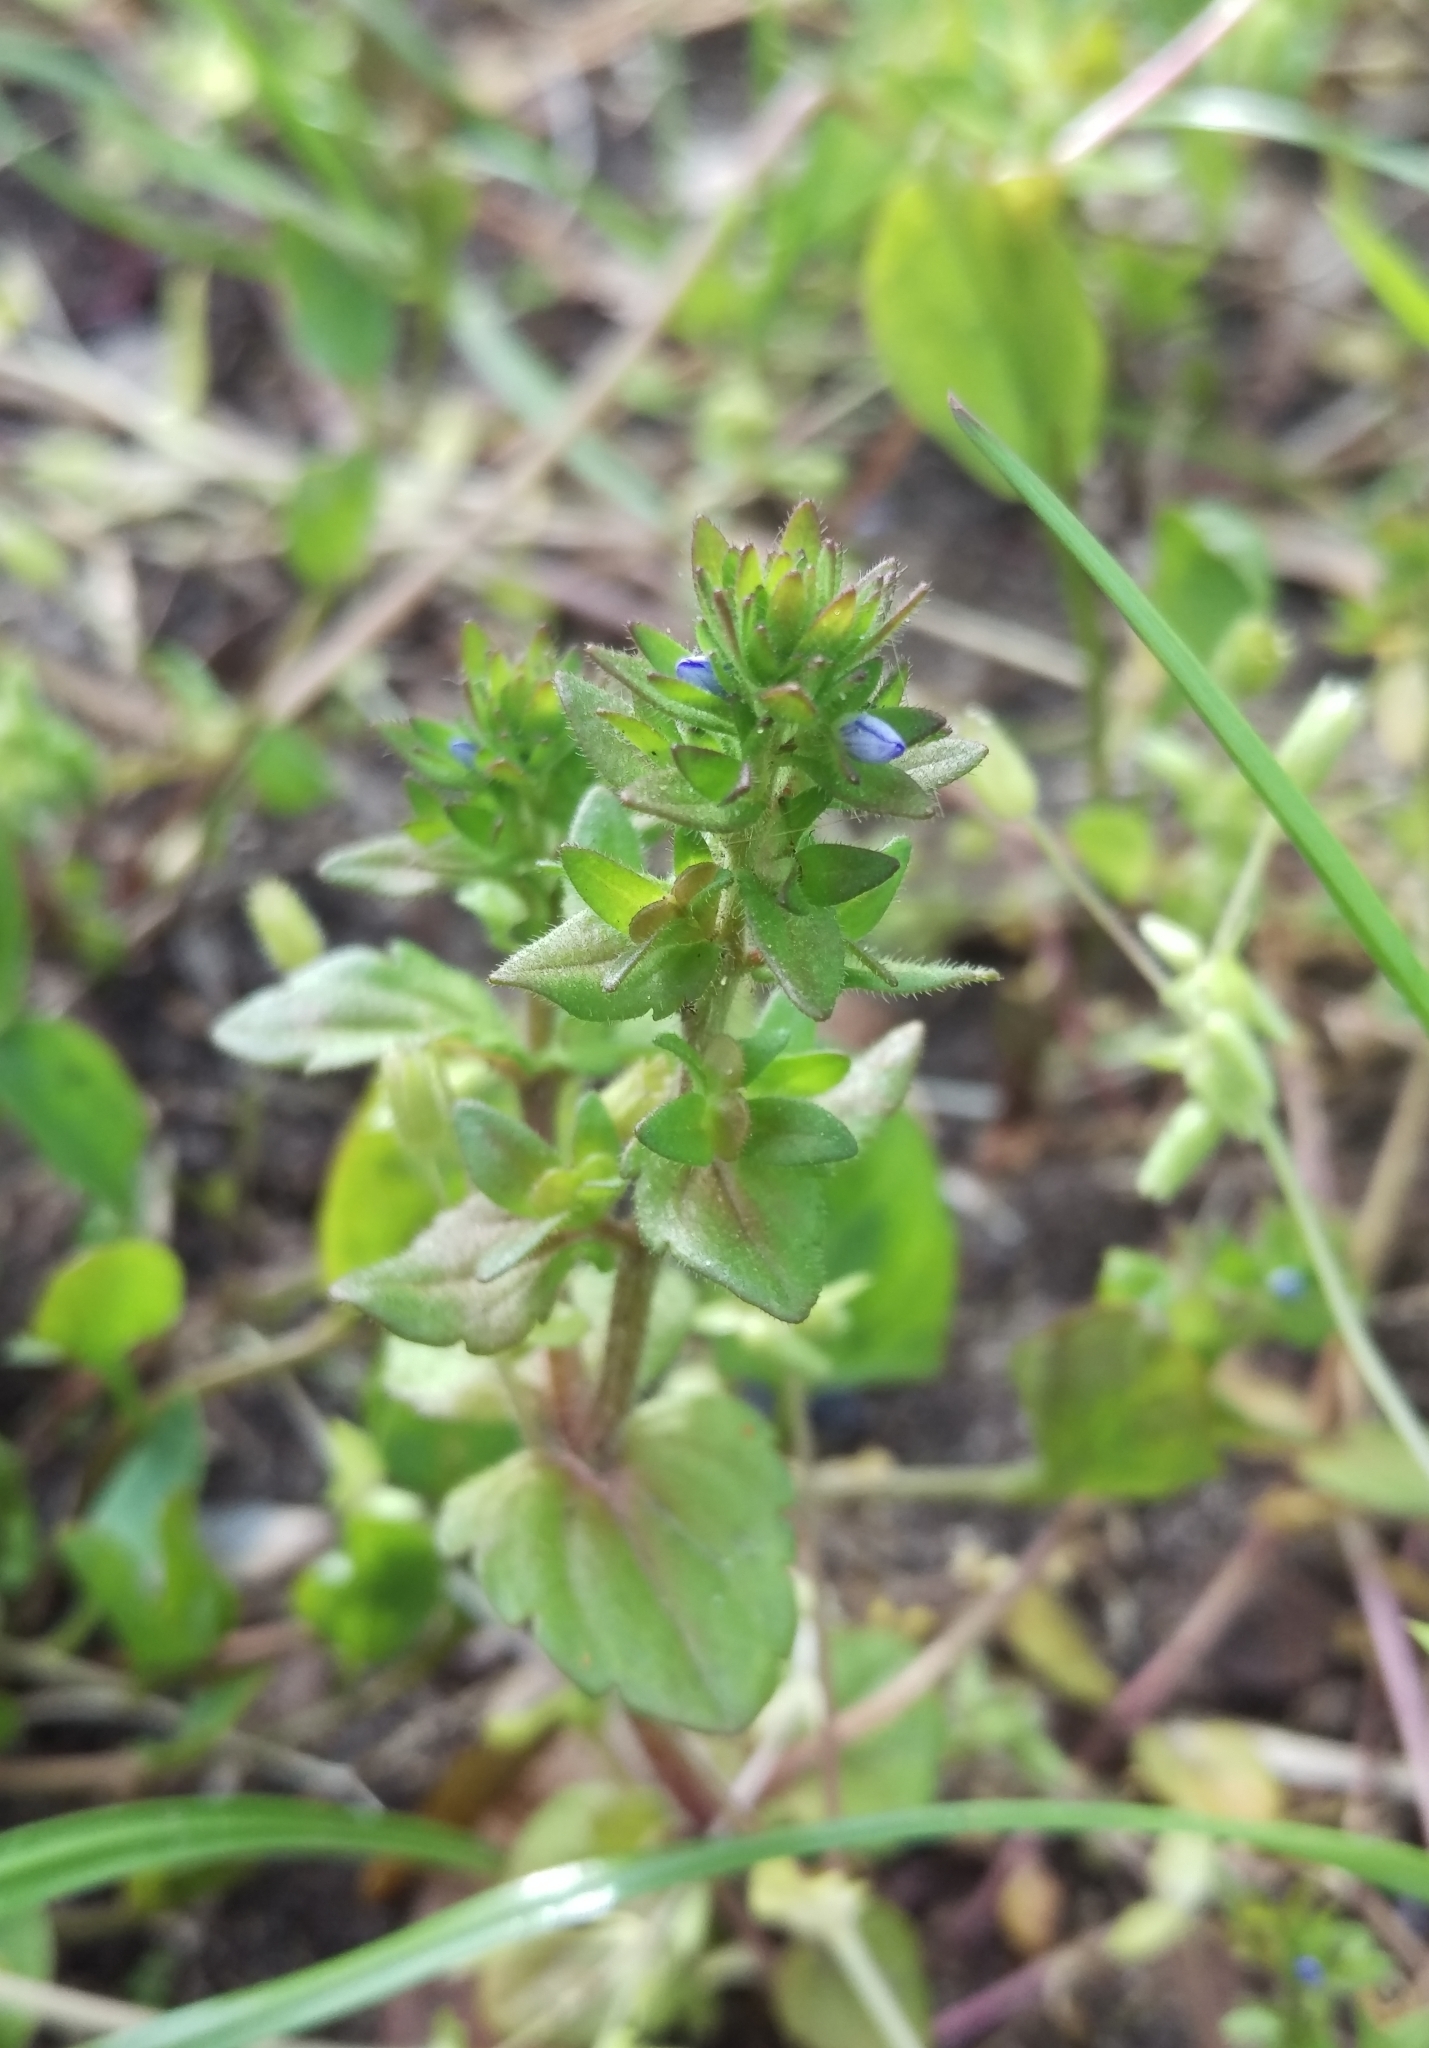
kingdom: Plantae
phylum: Tracheophyta
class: Magnoliopsida
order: Lamiales
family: Plantaginaceae
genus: Veronica
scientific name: Veronica arvensis
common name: Corn speedwell
